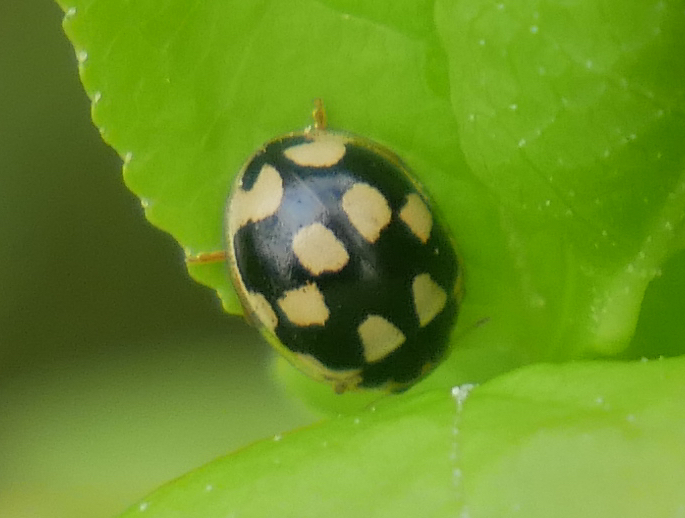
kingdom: Animalia
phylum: Arthropoda
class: Insecta
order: Coleoptera
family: Coccinellidae
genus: Propylaea
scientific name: Propylaea quatuordecimpunctata
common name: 14-spotted ladybird beetle
